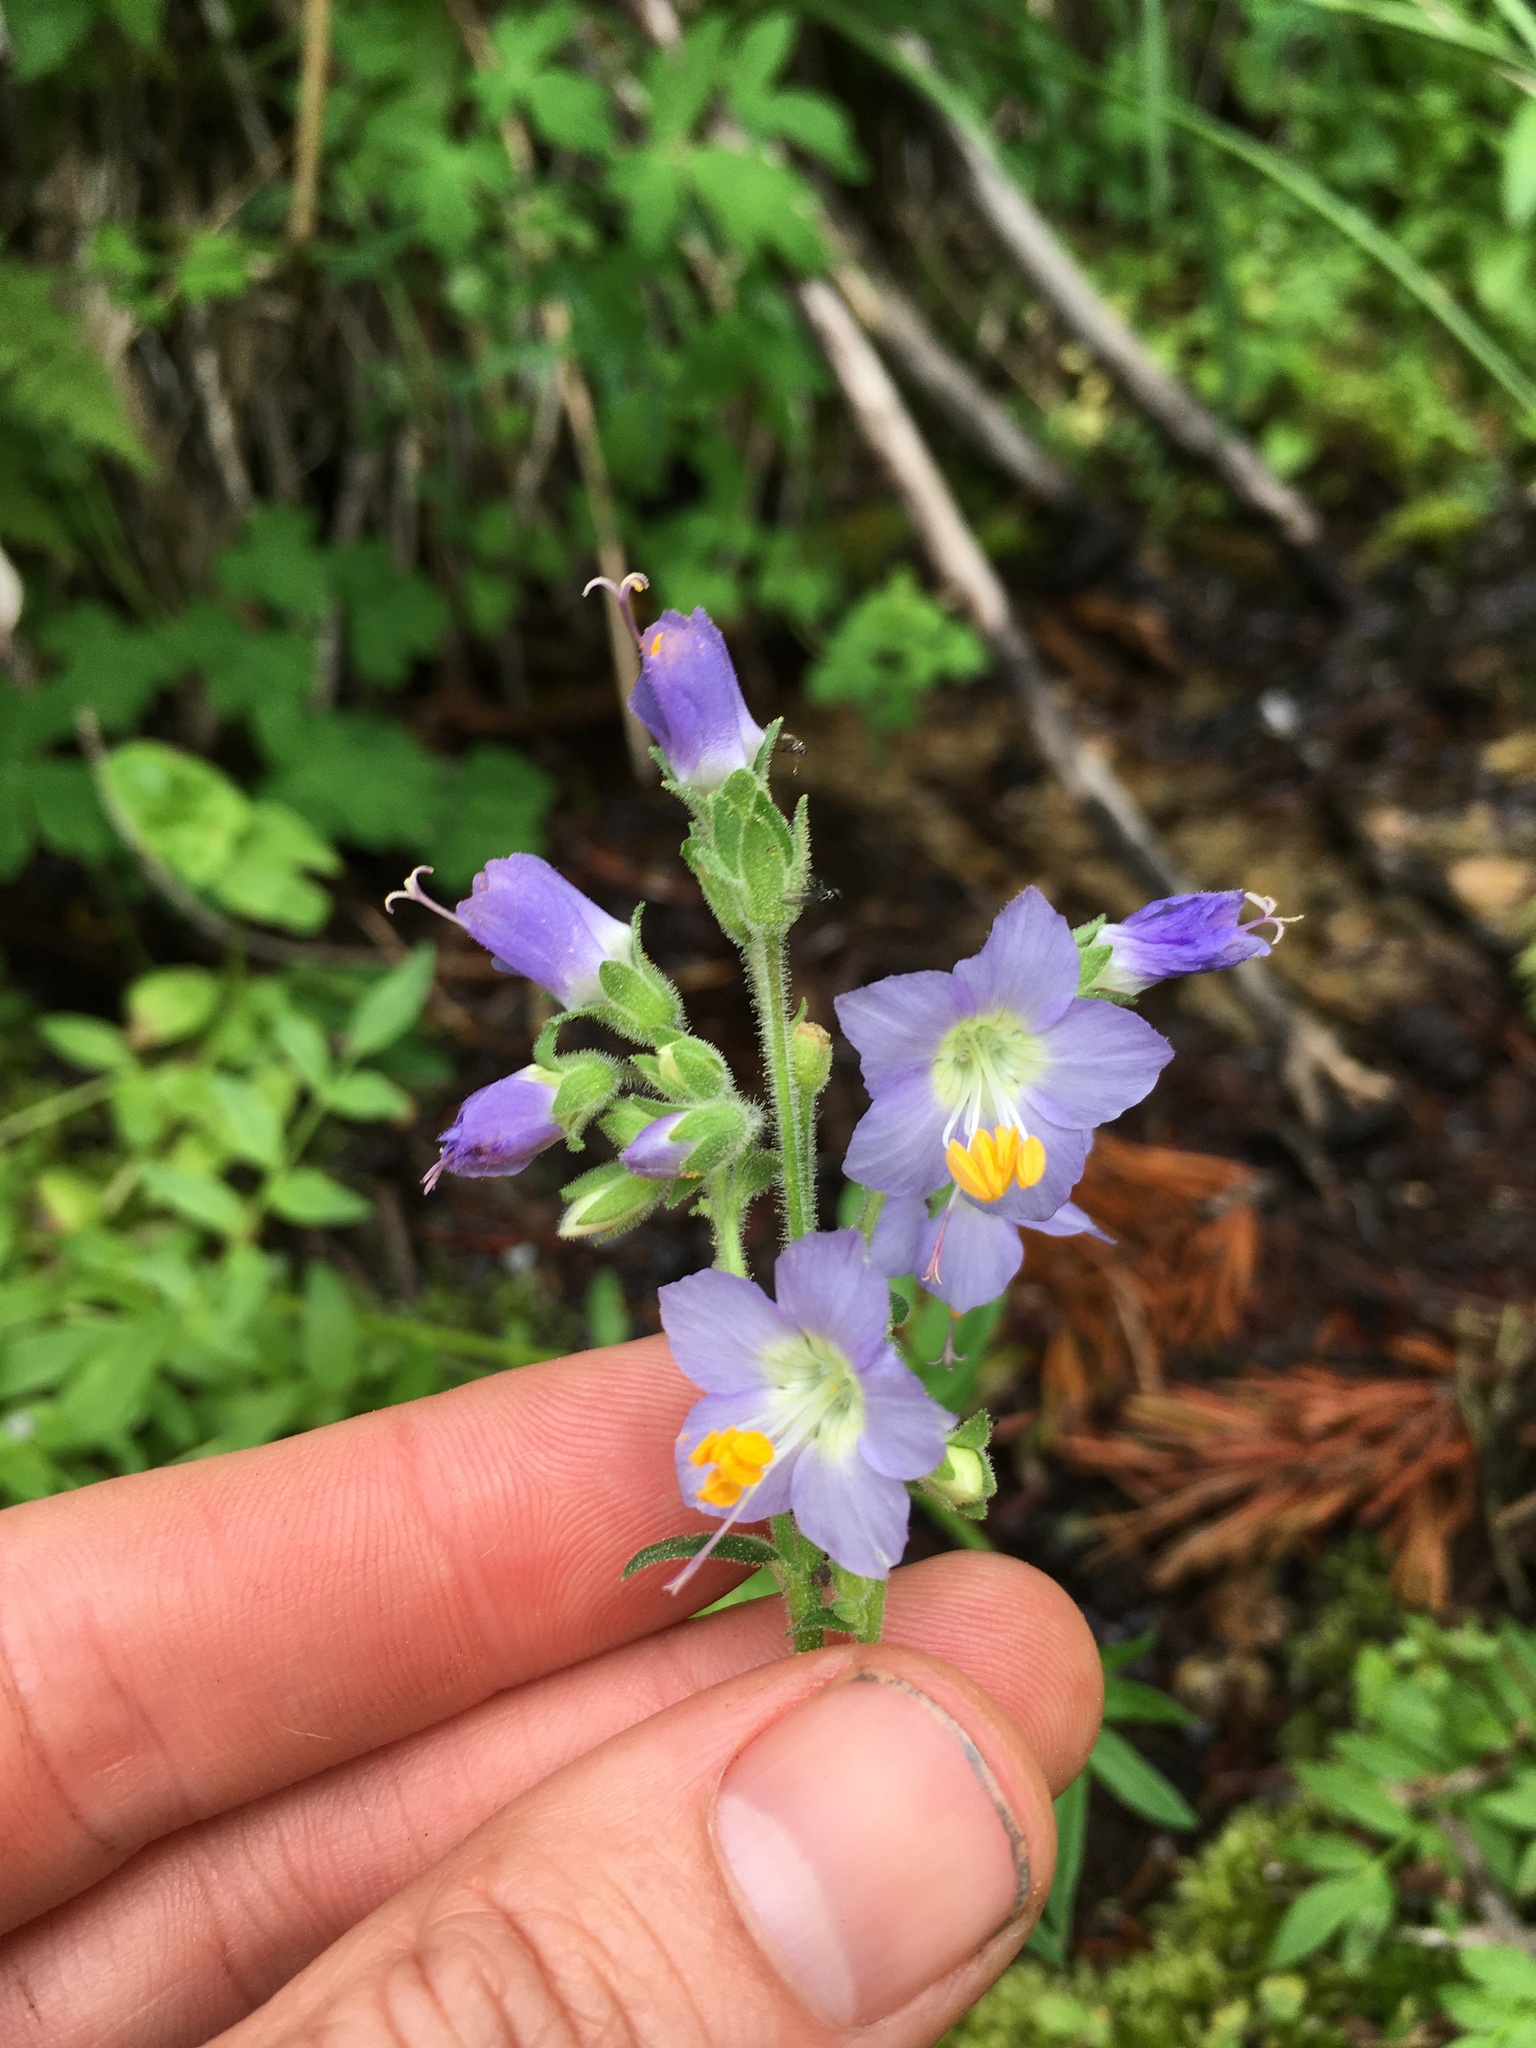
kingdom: Plantae
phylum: Tracheophyta
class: Magnoliopsida
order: Ericales
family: Polemoniaceae
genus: Polemonium
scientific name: Polemonium occidentale
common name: Western jacob's-ladder
